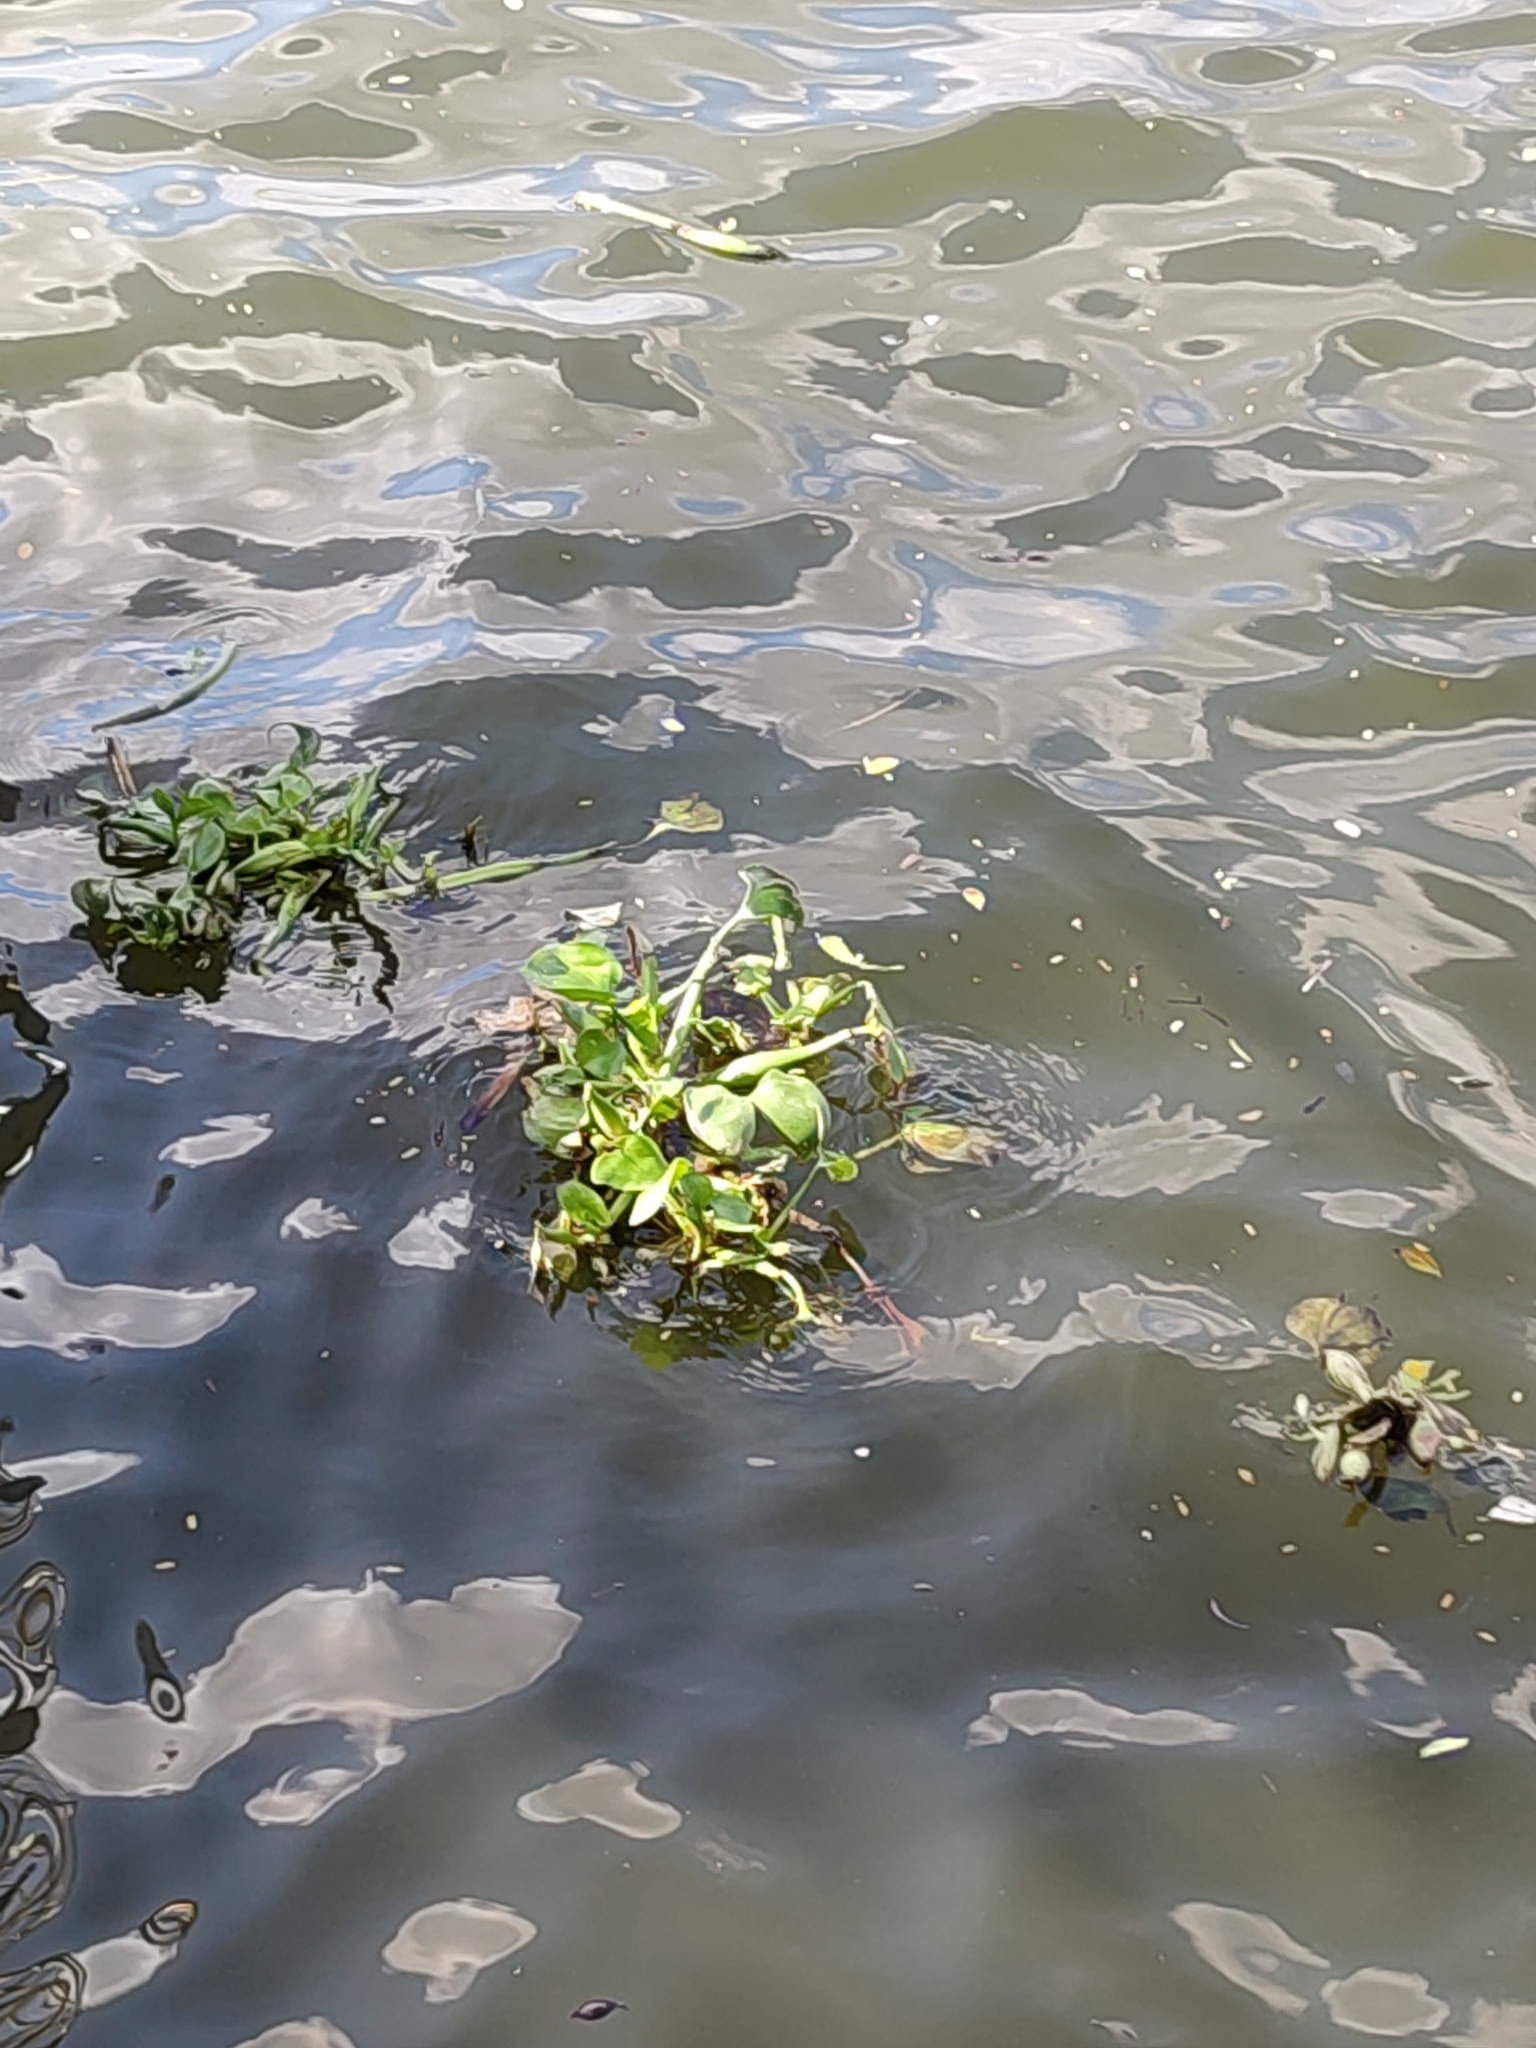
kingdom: Plantae
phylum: Tracheophyta
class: Liliopsida
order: Commelinales
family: Pontederiaceae
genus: Pontederia
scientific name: Pontederia crassipes
